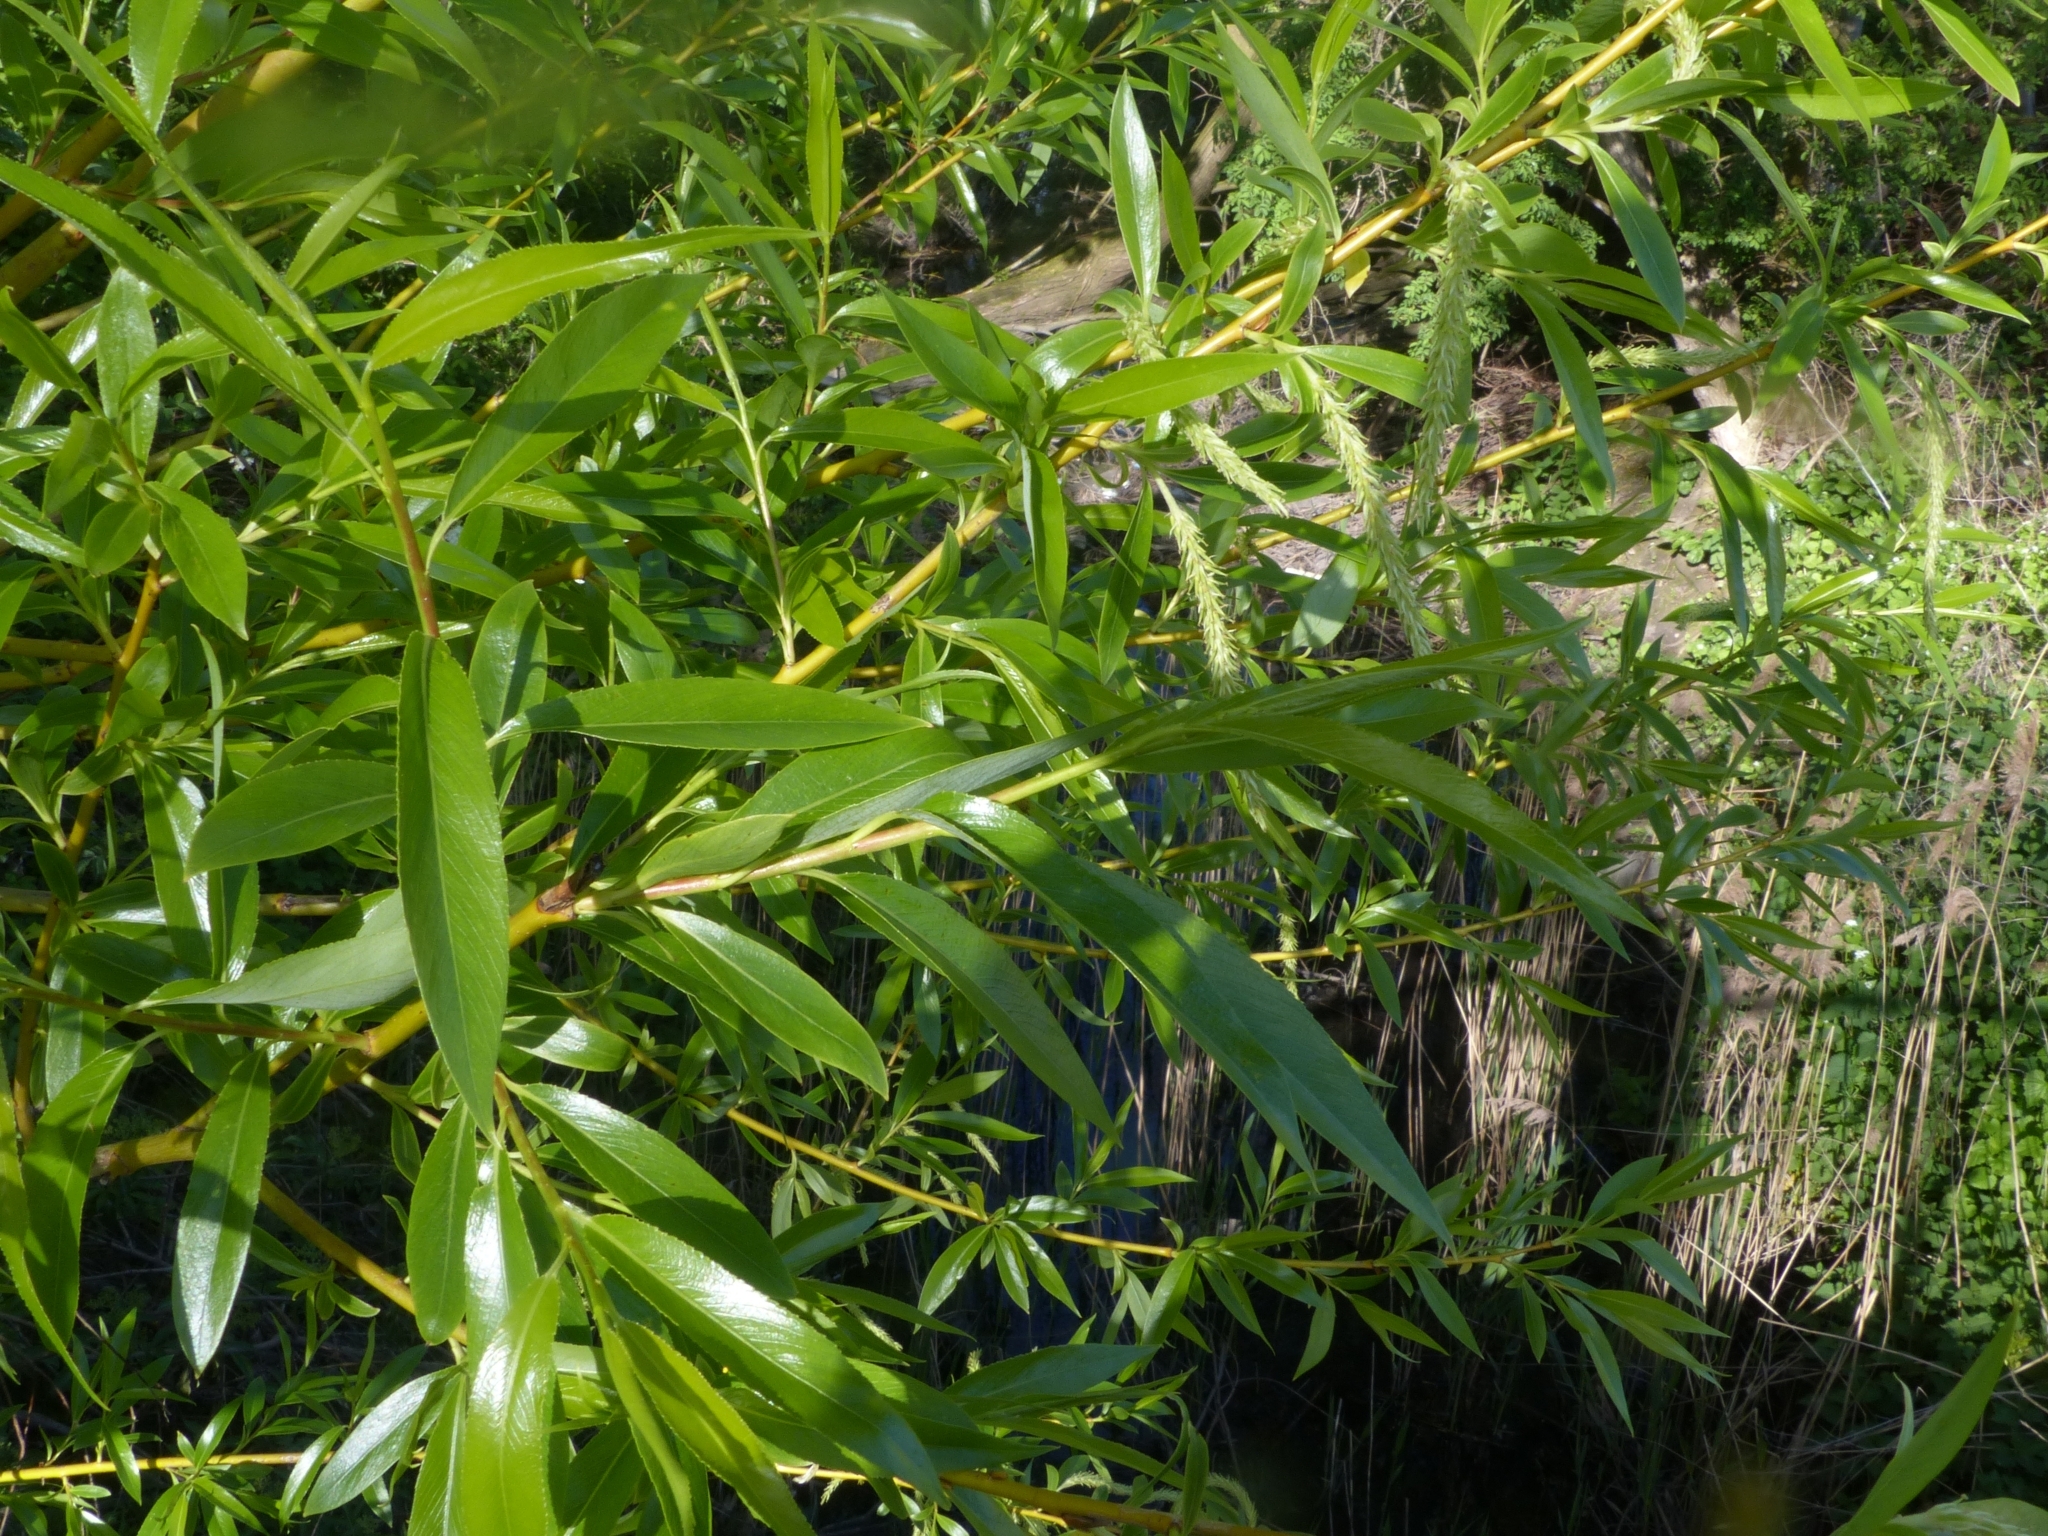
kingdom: Plantae
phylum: Tracheophyta
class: Magnoliopsida
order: Malpighiales
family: Salicaceae
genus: Salix
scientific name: Salix fragilis
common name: Crack willow
